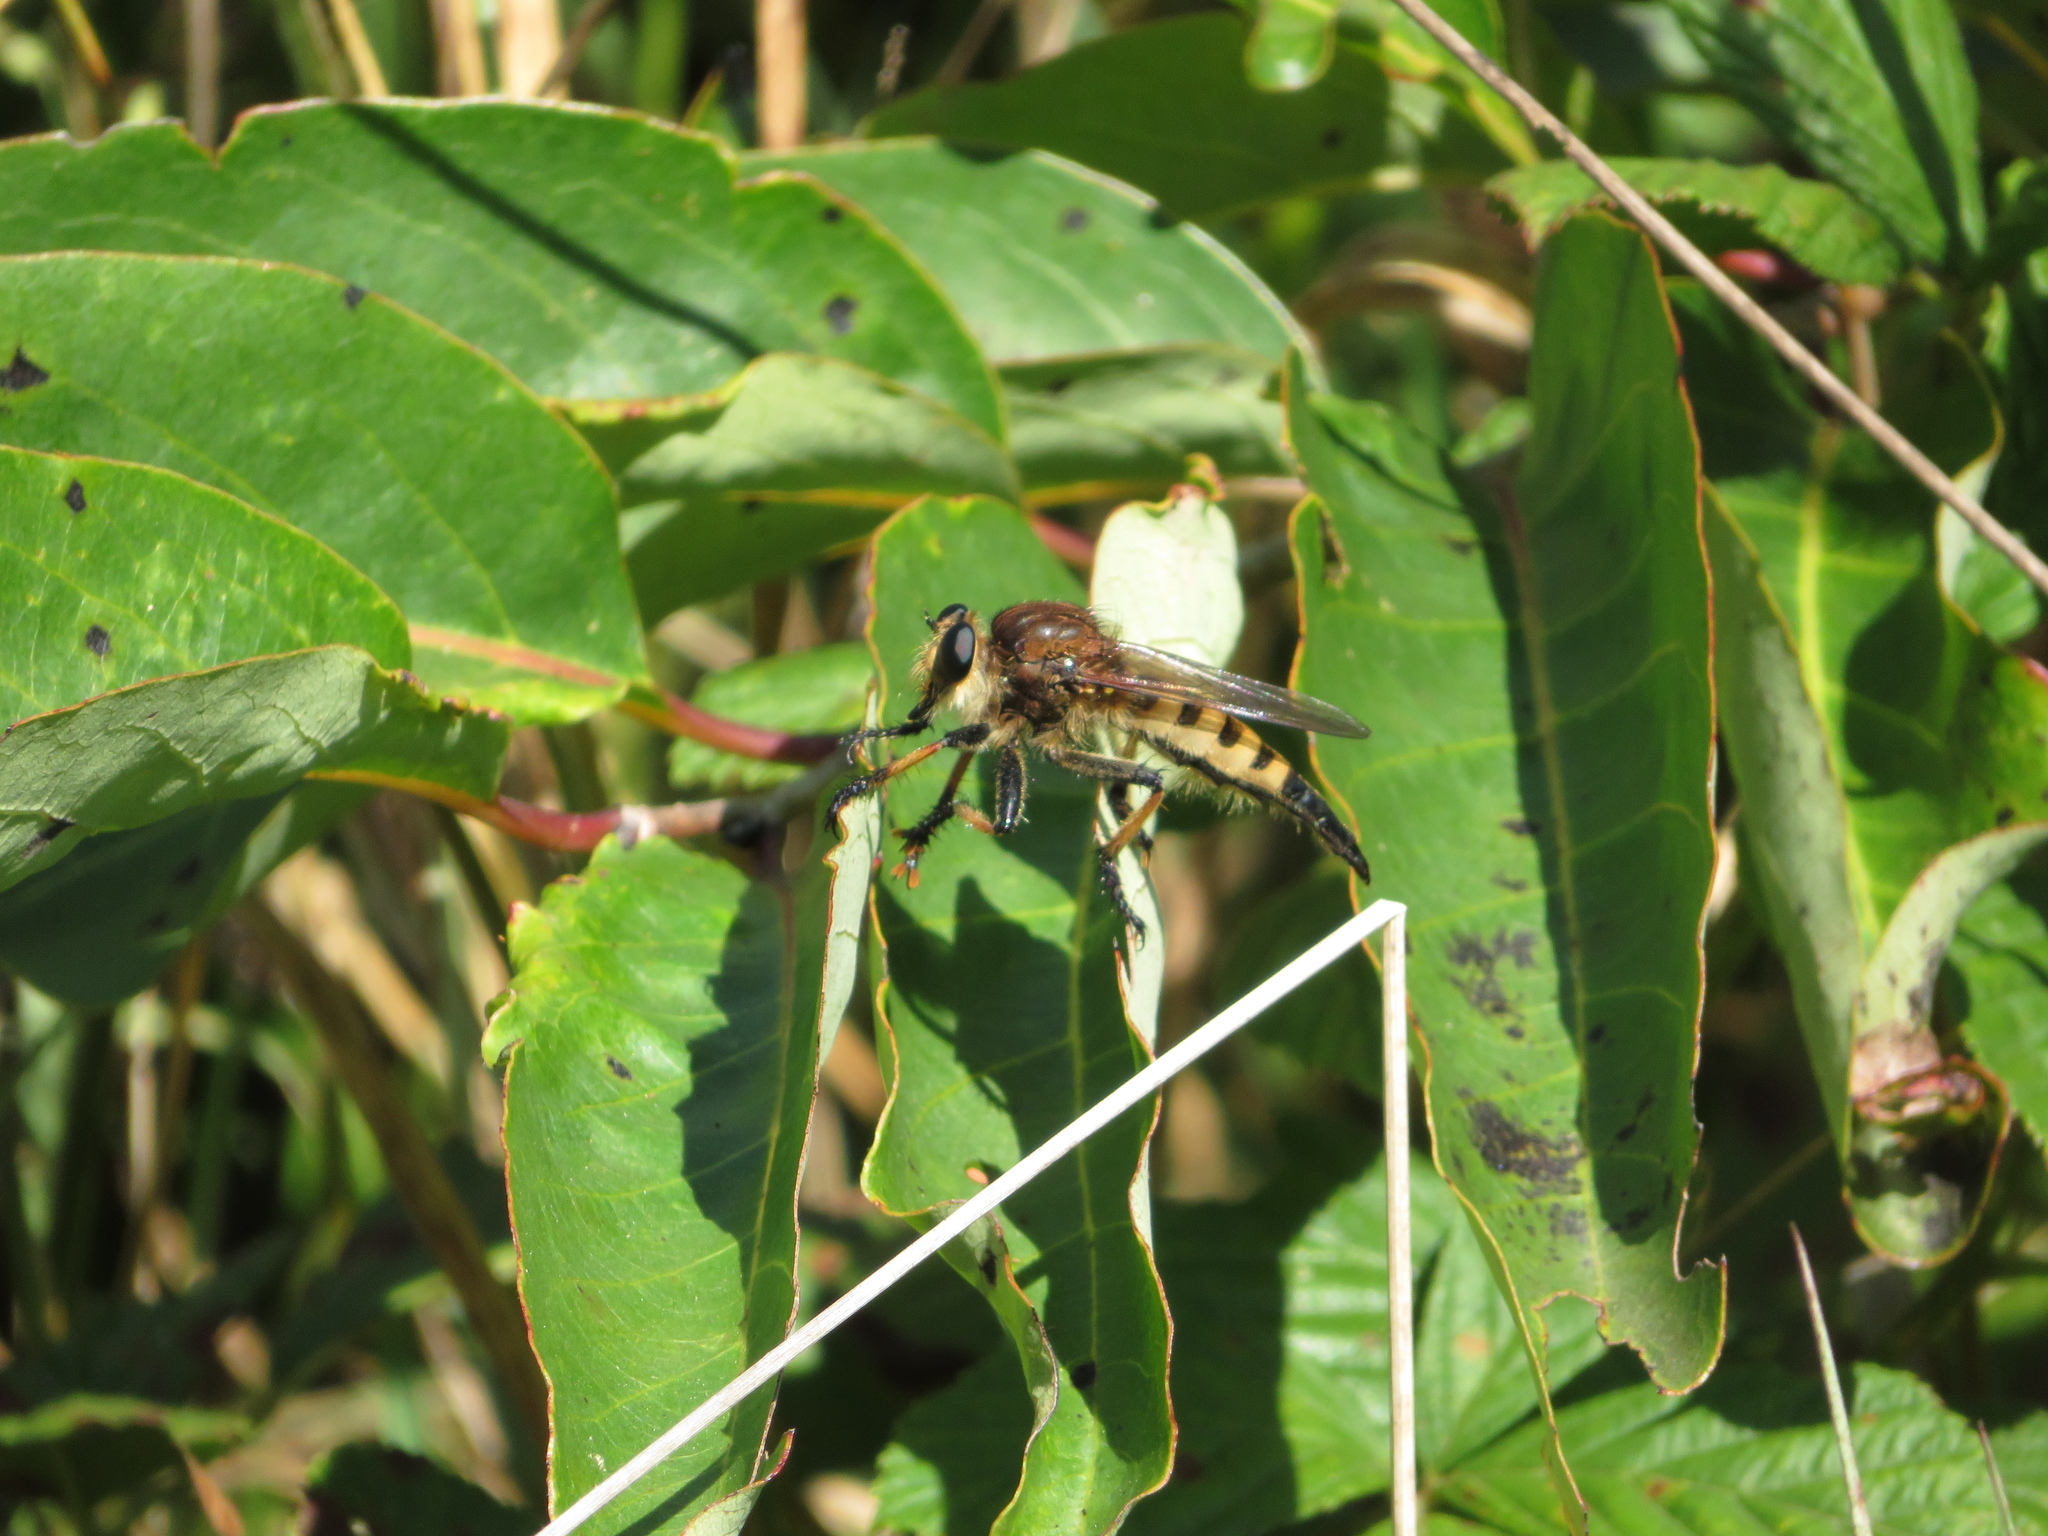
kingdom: Animalia
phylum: Arthropoda
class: Insecta
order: Diptera
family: Asilidae
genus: Promachus
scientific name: Promachus rufipes
